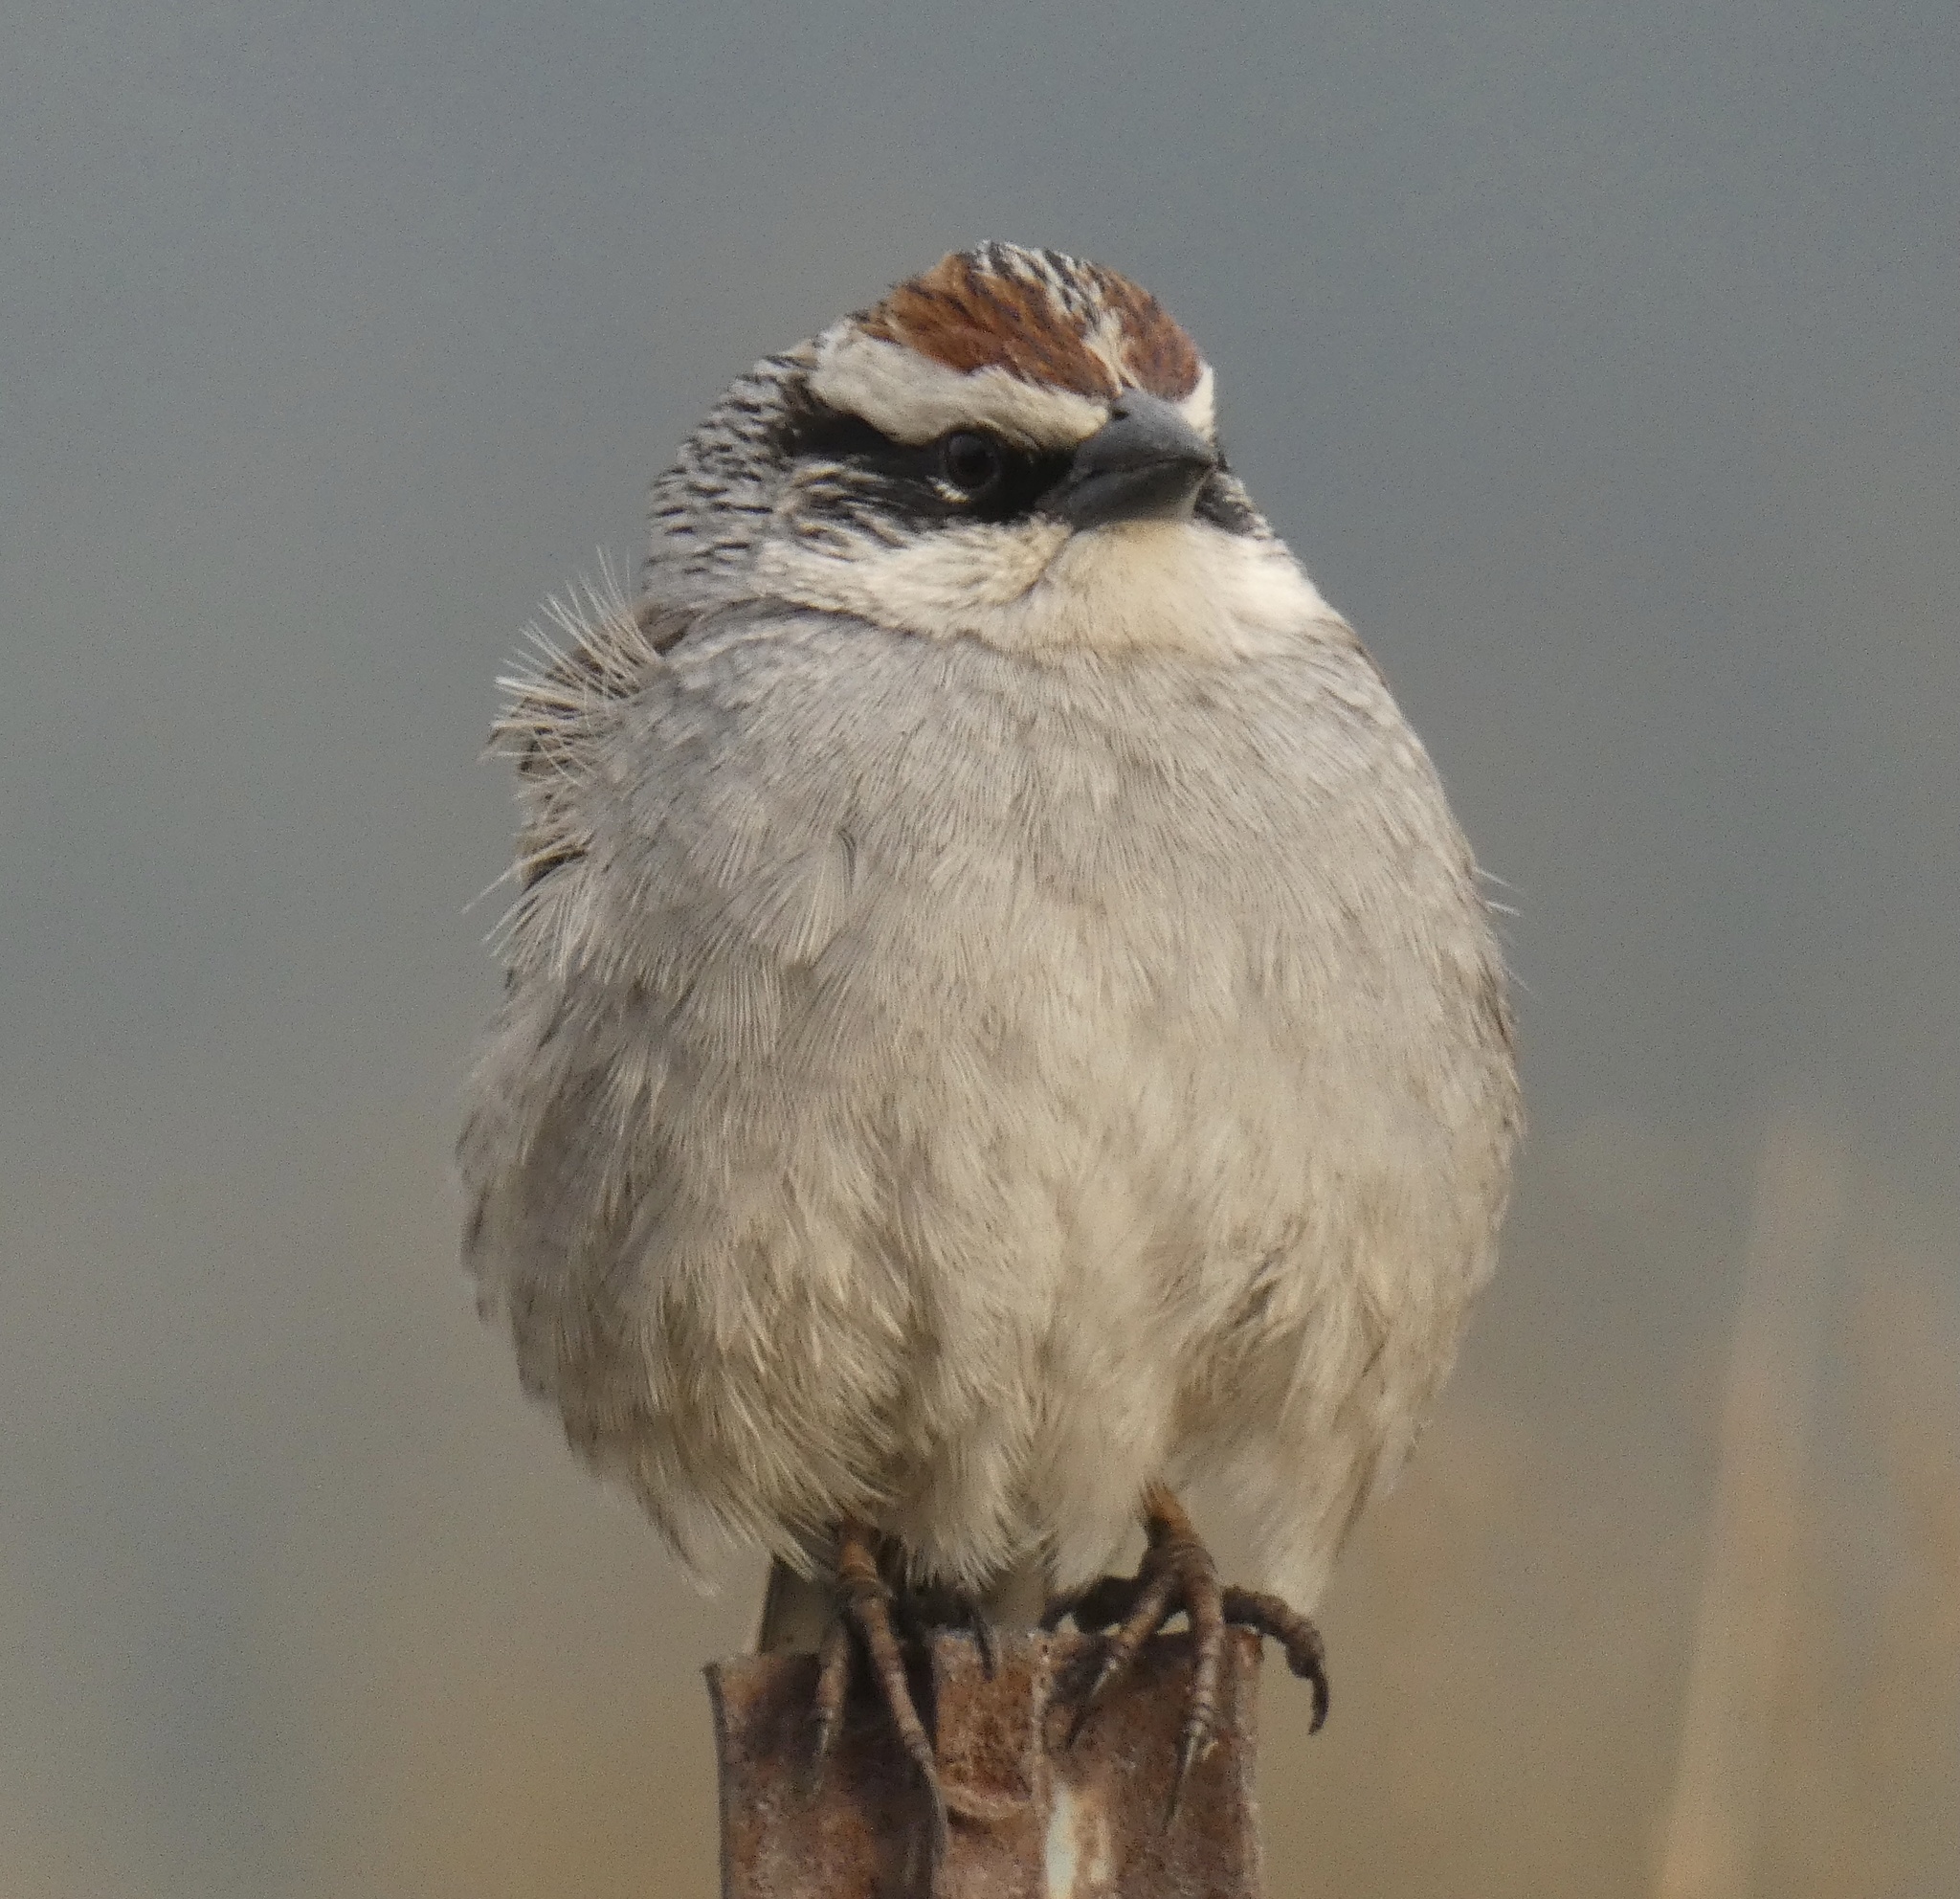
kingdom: Animalia
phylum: Chordata
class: Aves
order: Passeriformes
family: Passerellidae
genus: Oriturus
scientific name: Oriturus superciliosus
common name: Striped sparrow
